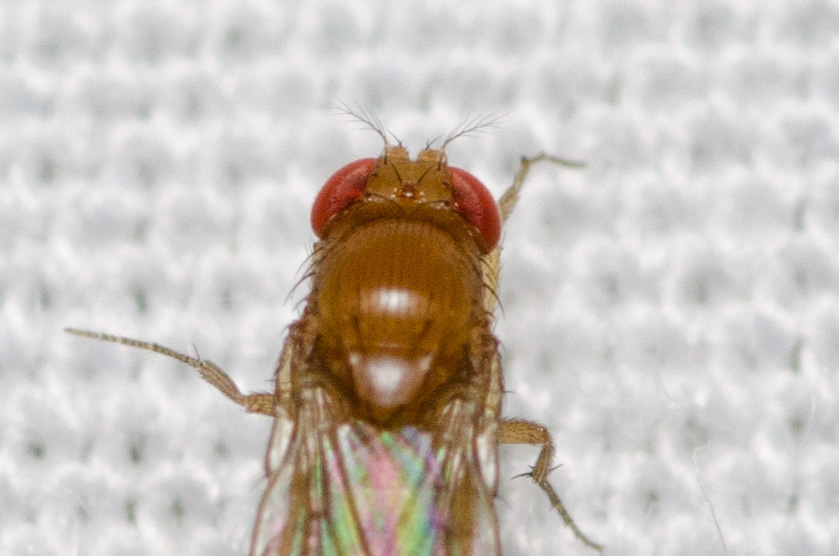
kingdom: Animalia
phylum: Arthropoda
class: Insecta
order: Diptera
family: Drosophilidae
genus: Drosophila
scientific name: Drosophila suzukii
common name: Spotted-wing drosophila
